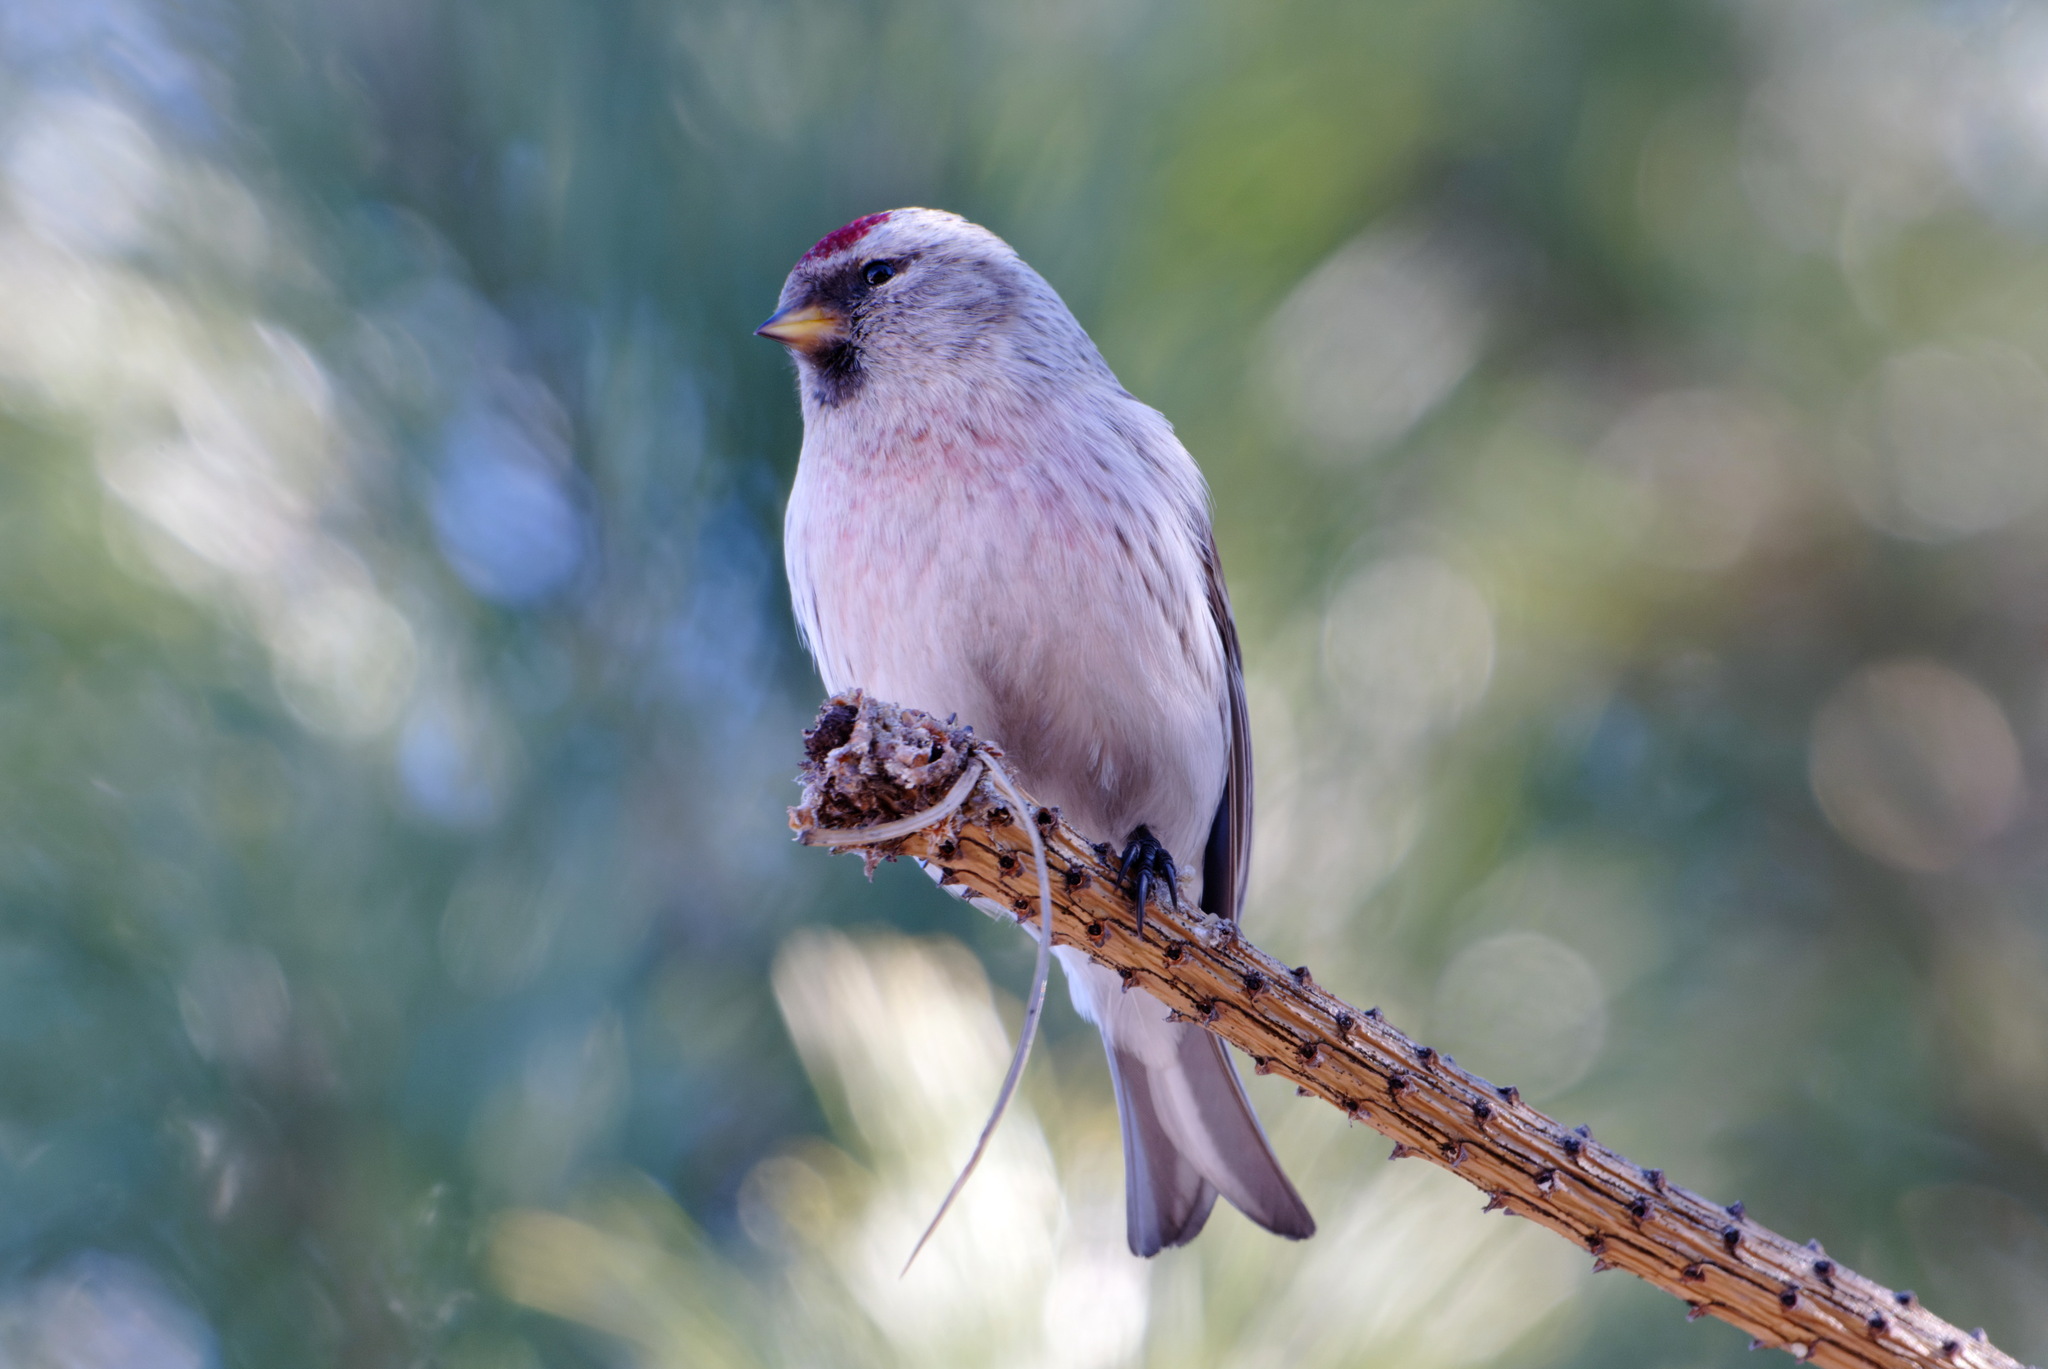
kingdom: Animalia
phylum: Chordata
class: Aves
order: Passeriformes
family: Fringillidae
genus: Acanthis
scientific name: Acanthis hornemanni
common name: Arctic redpoll
